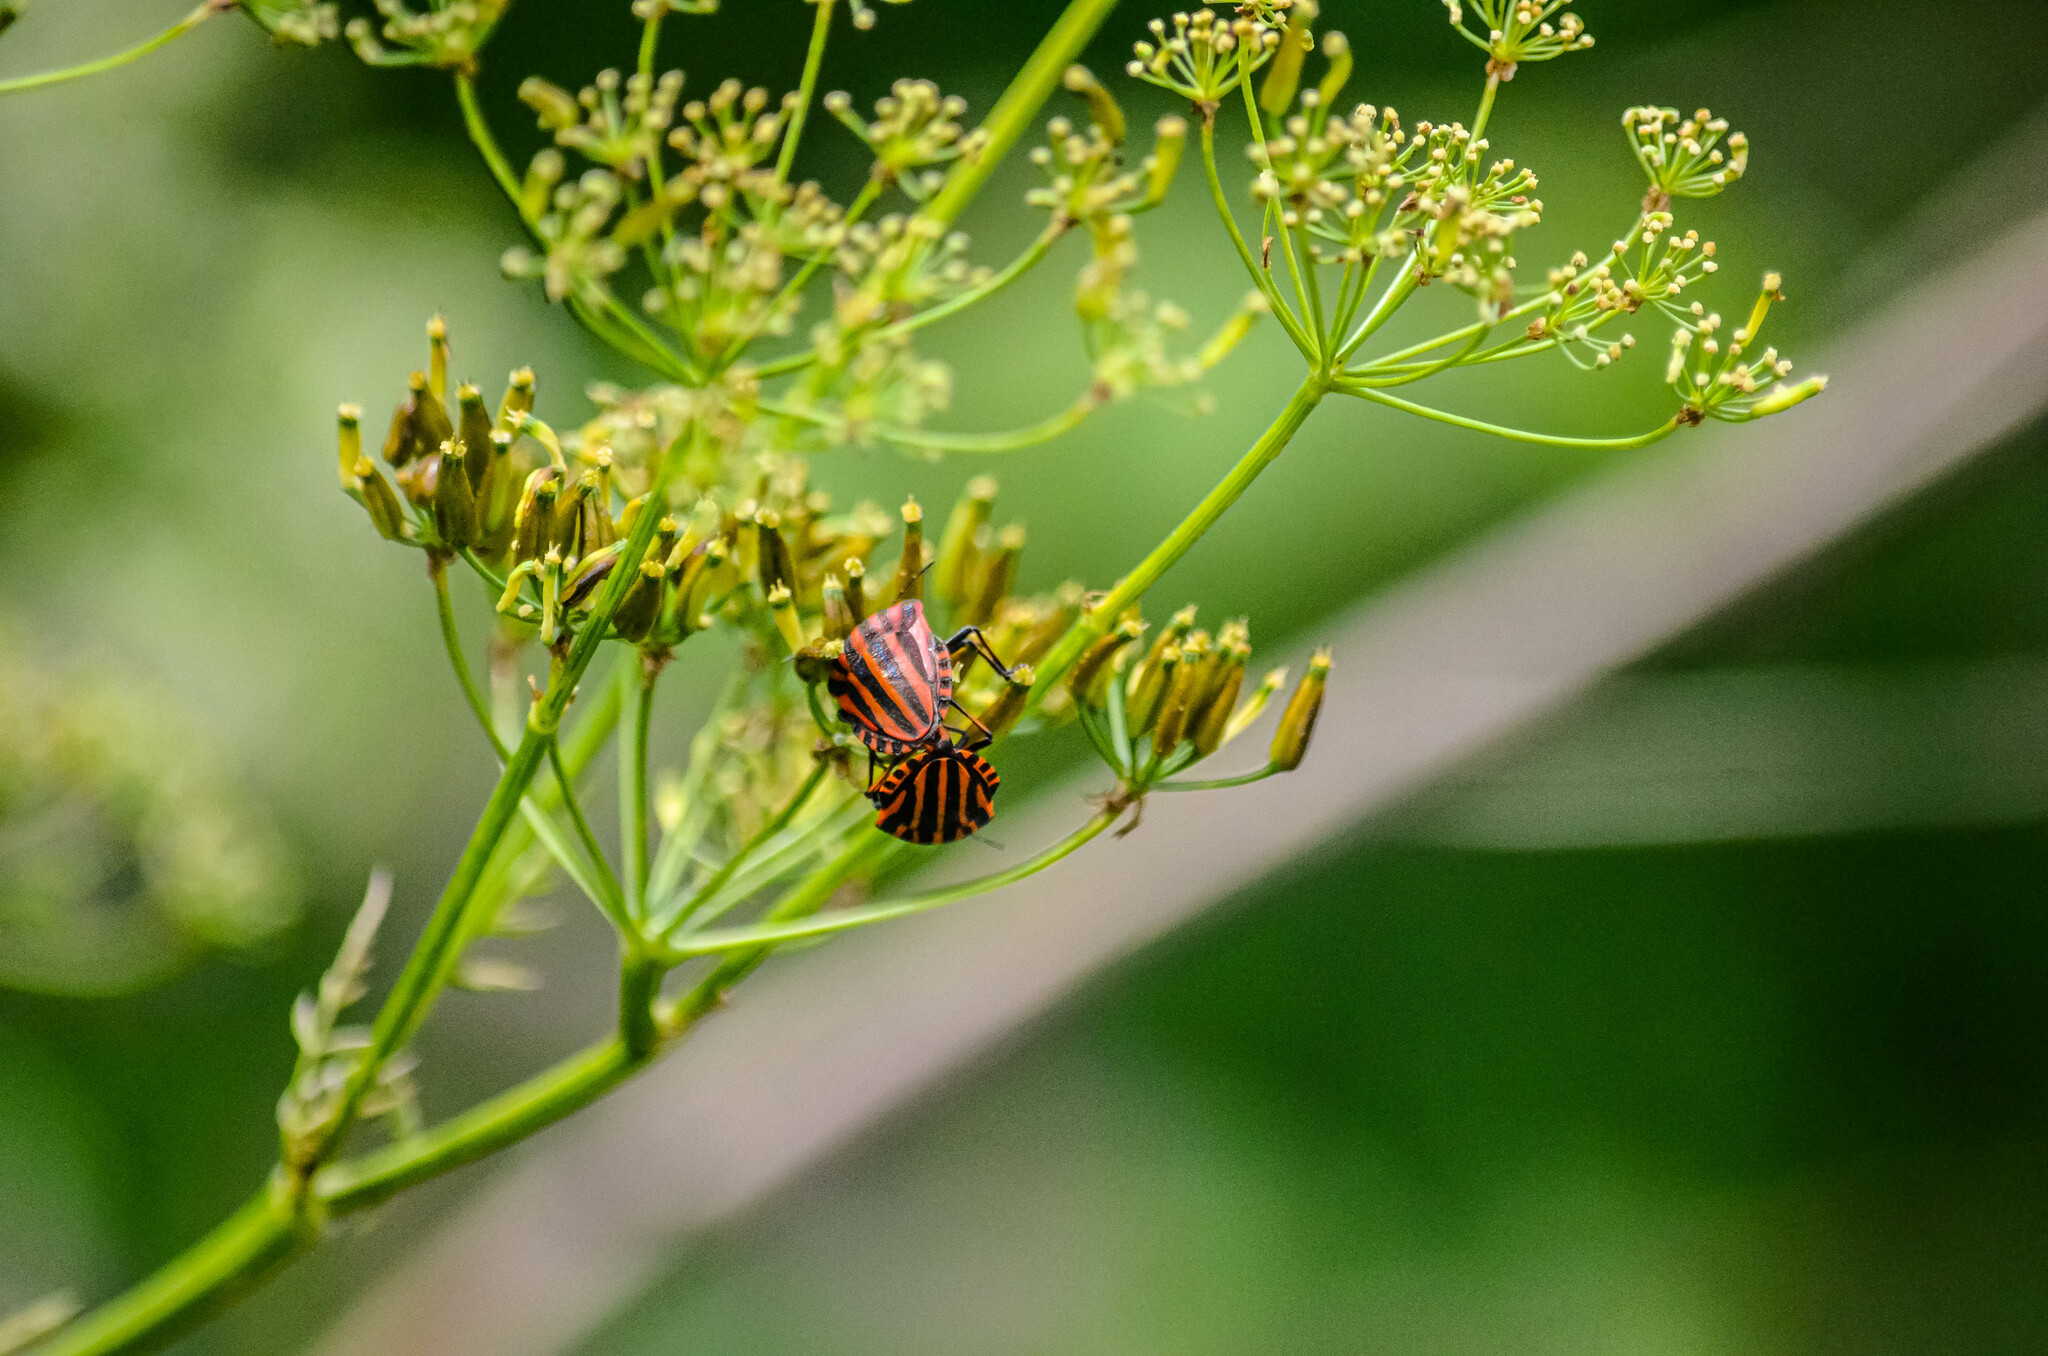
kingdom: Animalia
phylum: Arthropoda
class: Insecta
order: Hemiptera
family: Pentatomidae
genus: Graphosoma
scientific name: Graphosoma italicum
